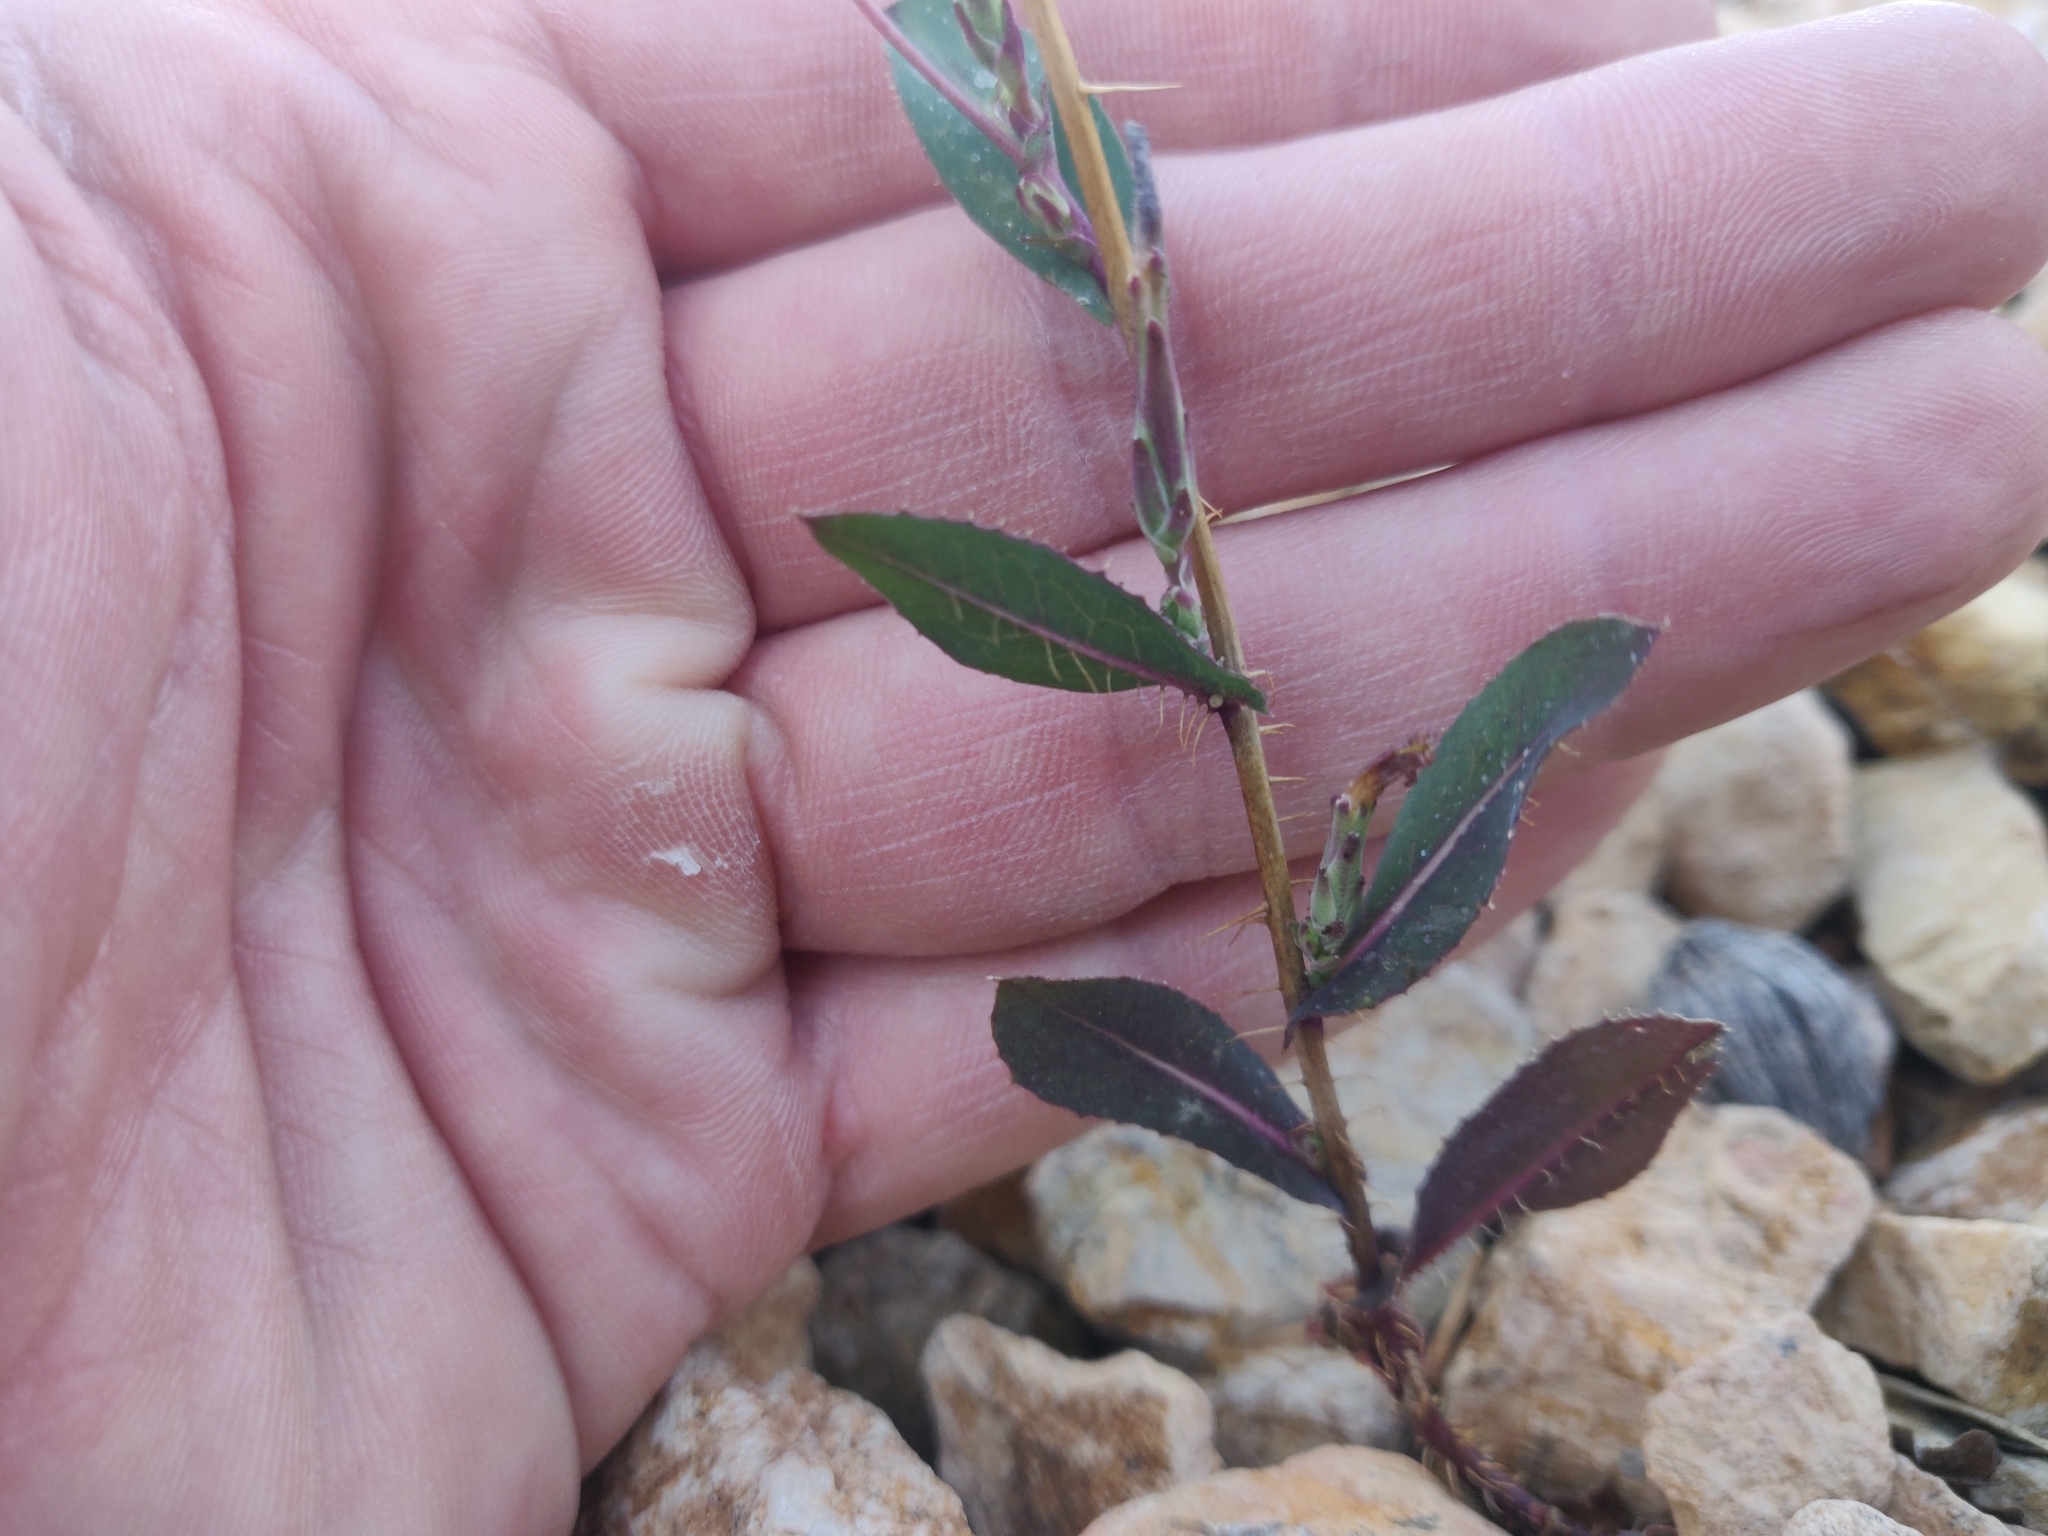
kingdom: Plantae
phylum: Tracheophyta
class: Magnoliopsida
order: Asterales
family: Asteraceae
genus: Lactuca
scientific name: Lactuca serriola
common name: Prickly lettuce
